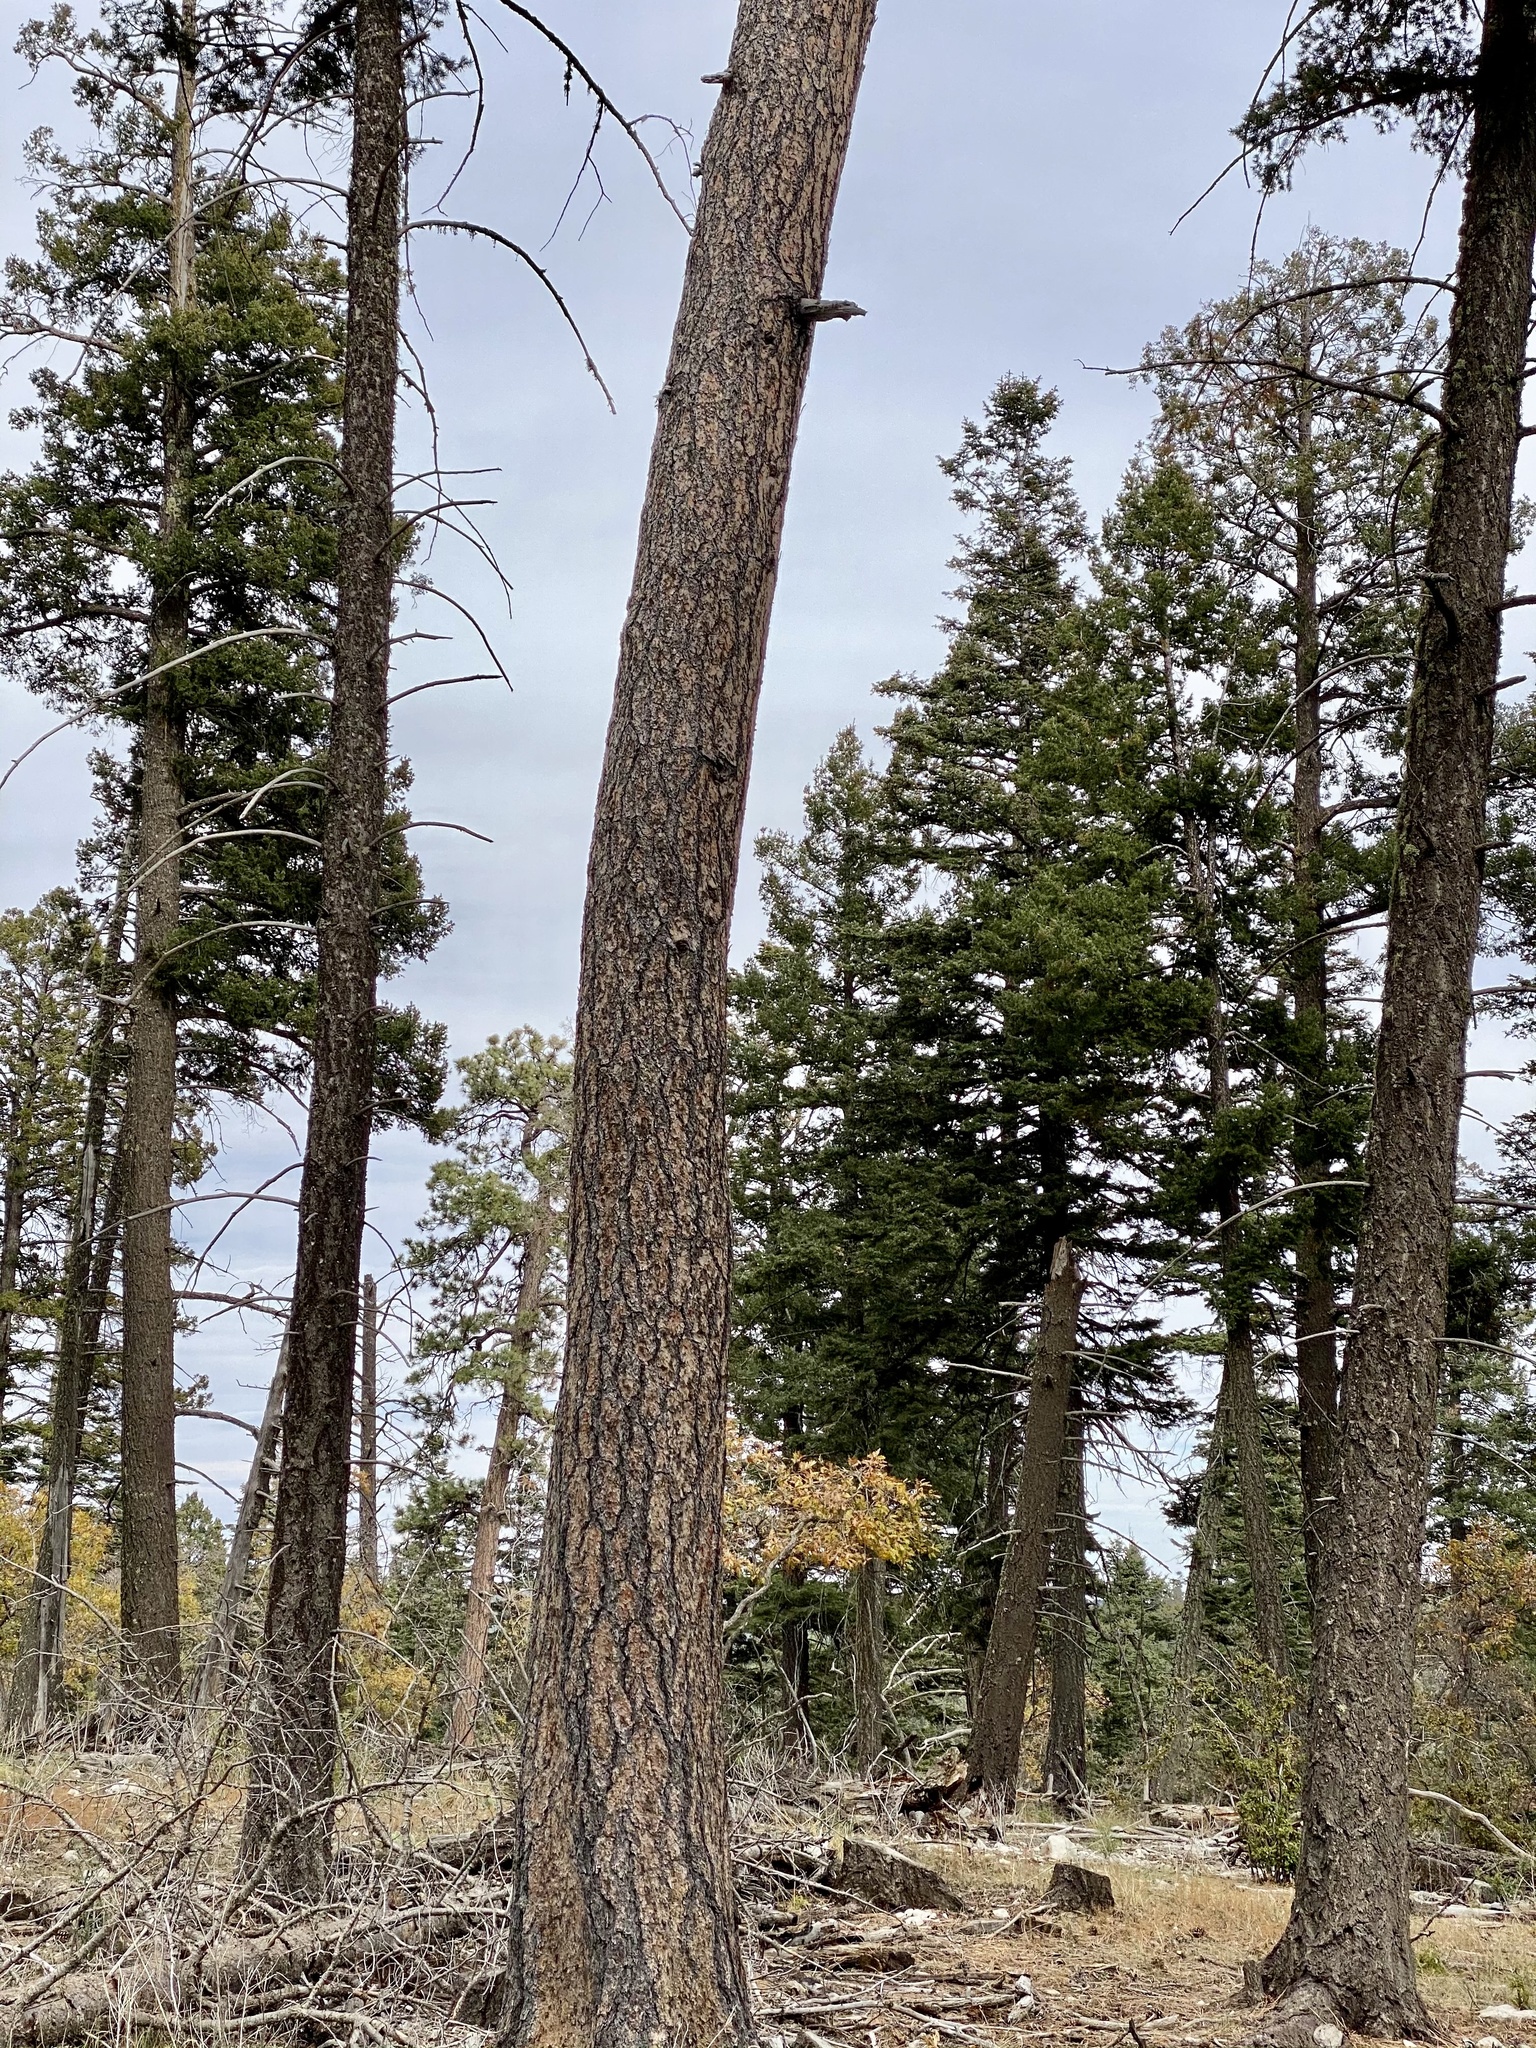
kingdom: Plantae
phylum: Tracheophyta
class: Pinopsida
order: Pinales
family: Pinaceae
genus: Pinus
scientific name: Pinus ponderosa
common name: Western yellow-pine
